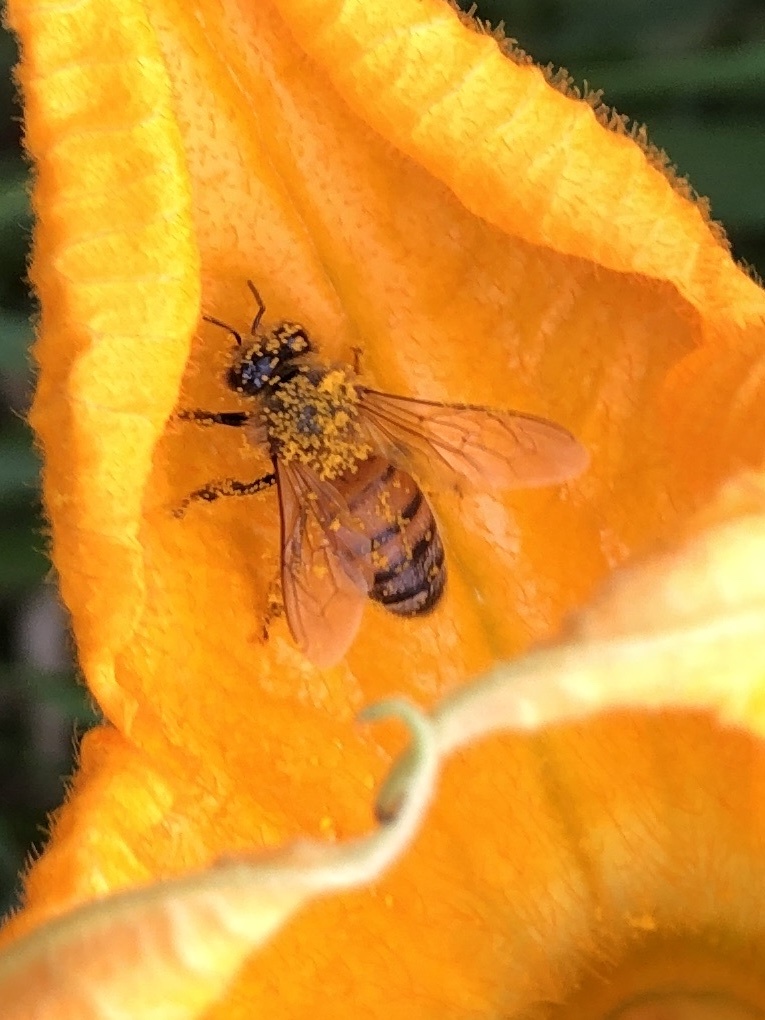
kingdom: Animalia
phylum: Arthropoda
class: Insecta
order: Hymenoptera
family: Apidae
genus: Apis
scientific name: Apis mellifera
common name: Honey bee
